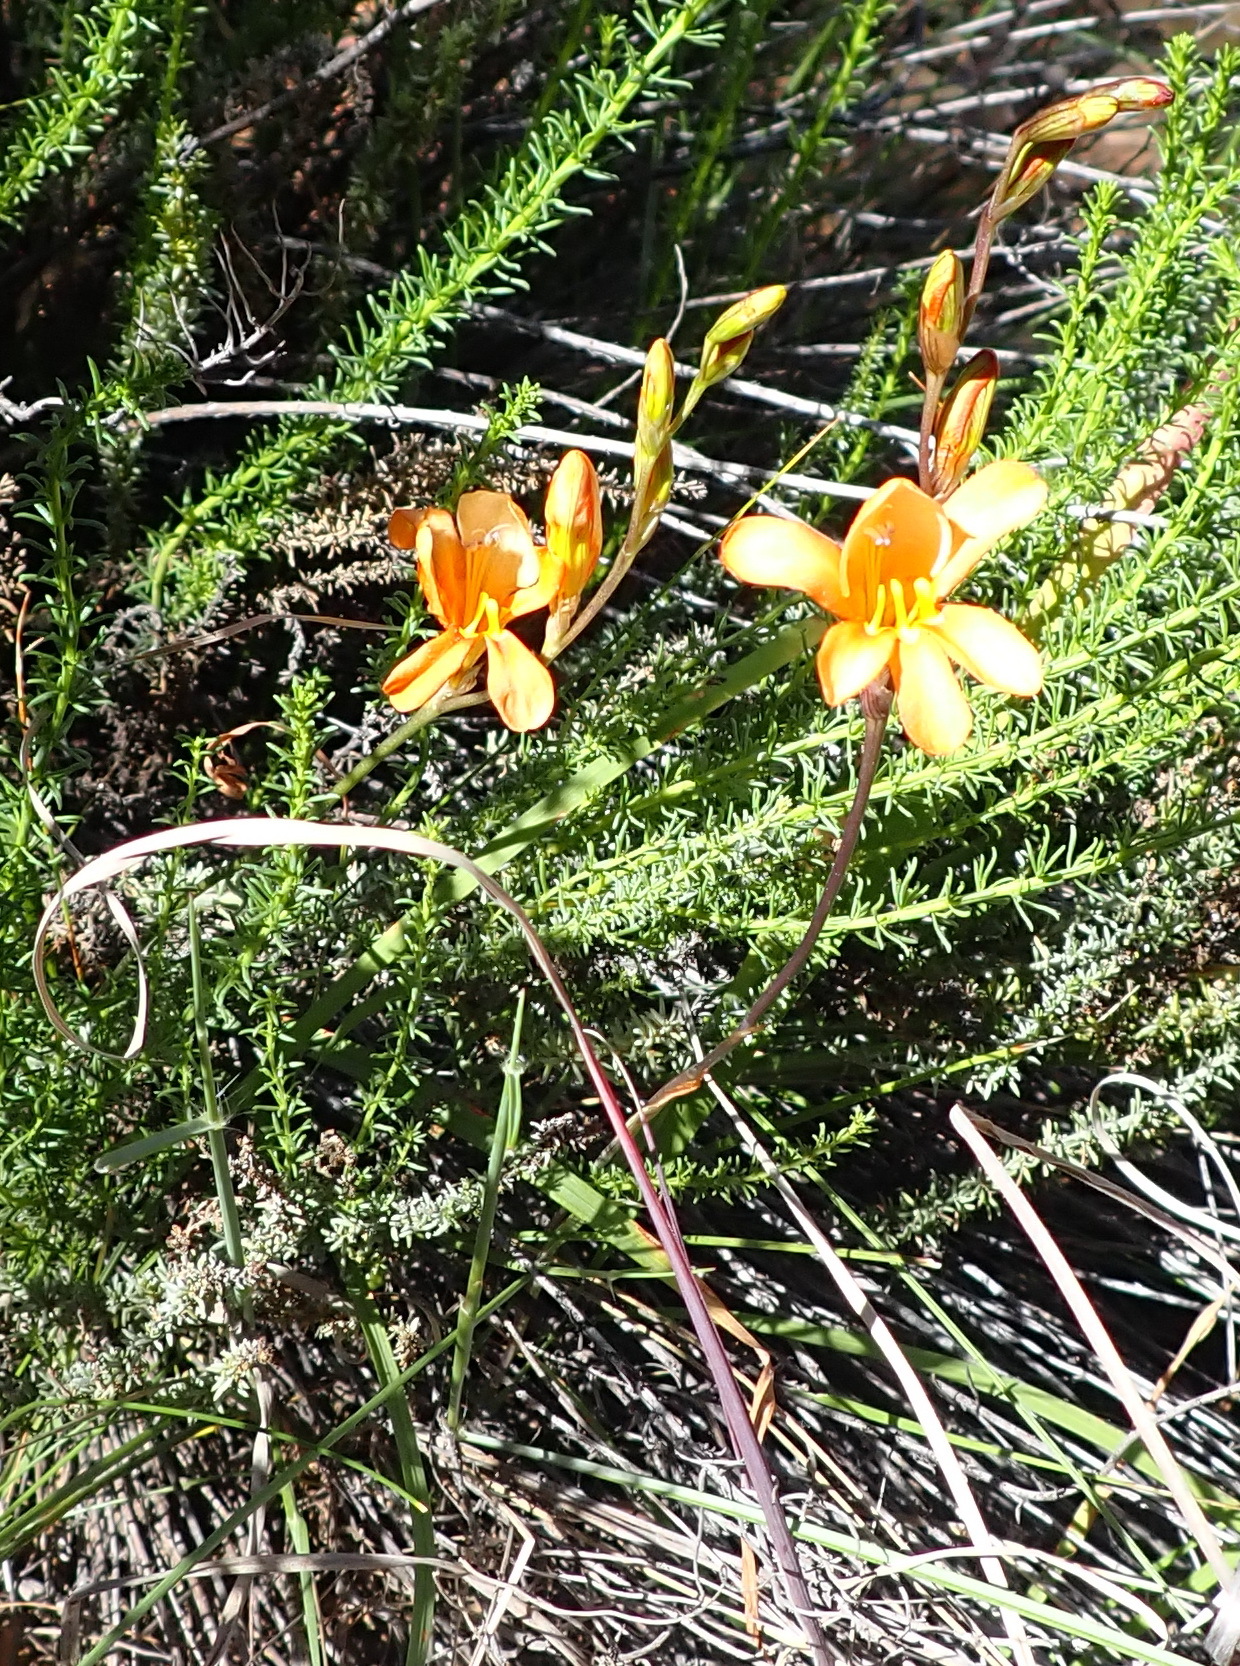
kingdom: Plantae
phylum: Tracheophyta
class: Liliopsida
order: Asparagales
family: Iridaceae
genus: Tritonia
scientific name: Tritonia parvula
